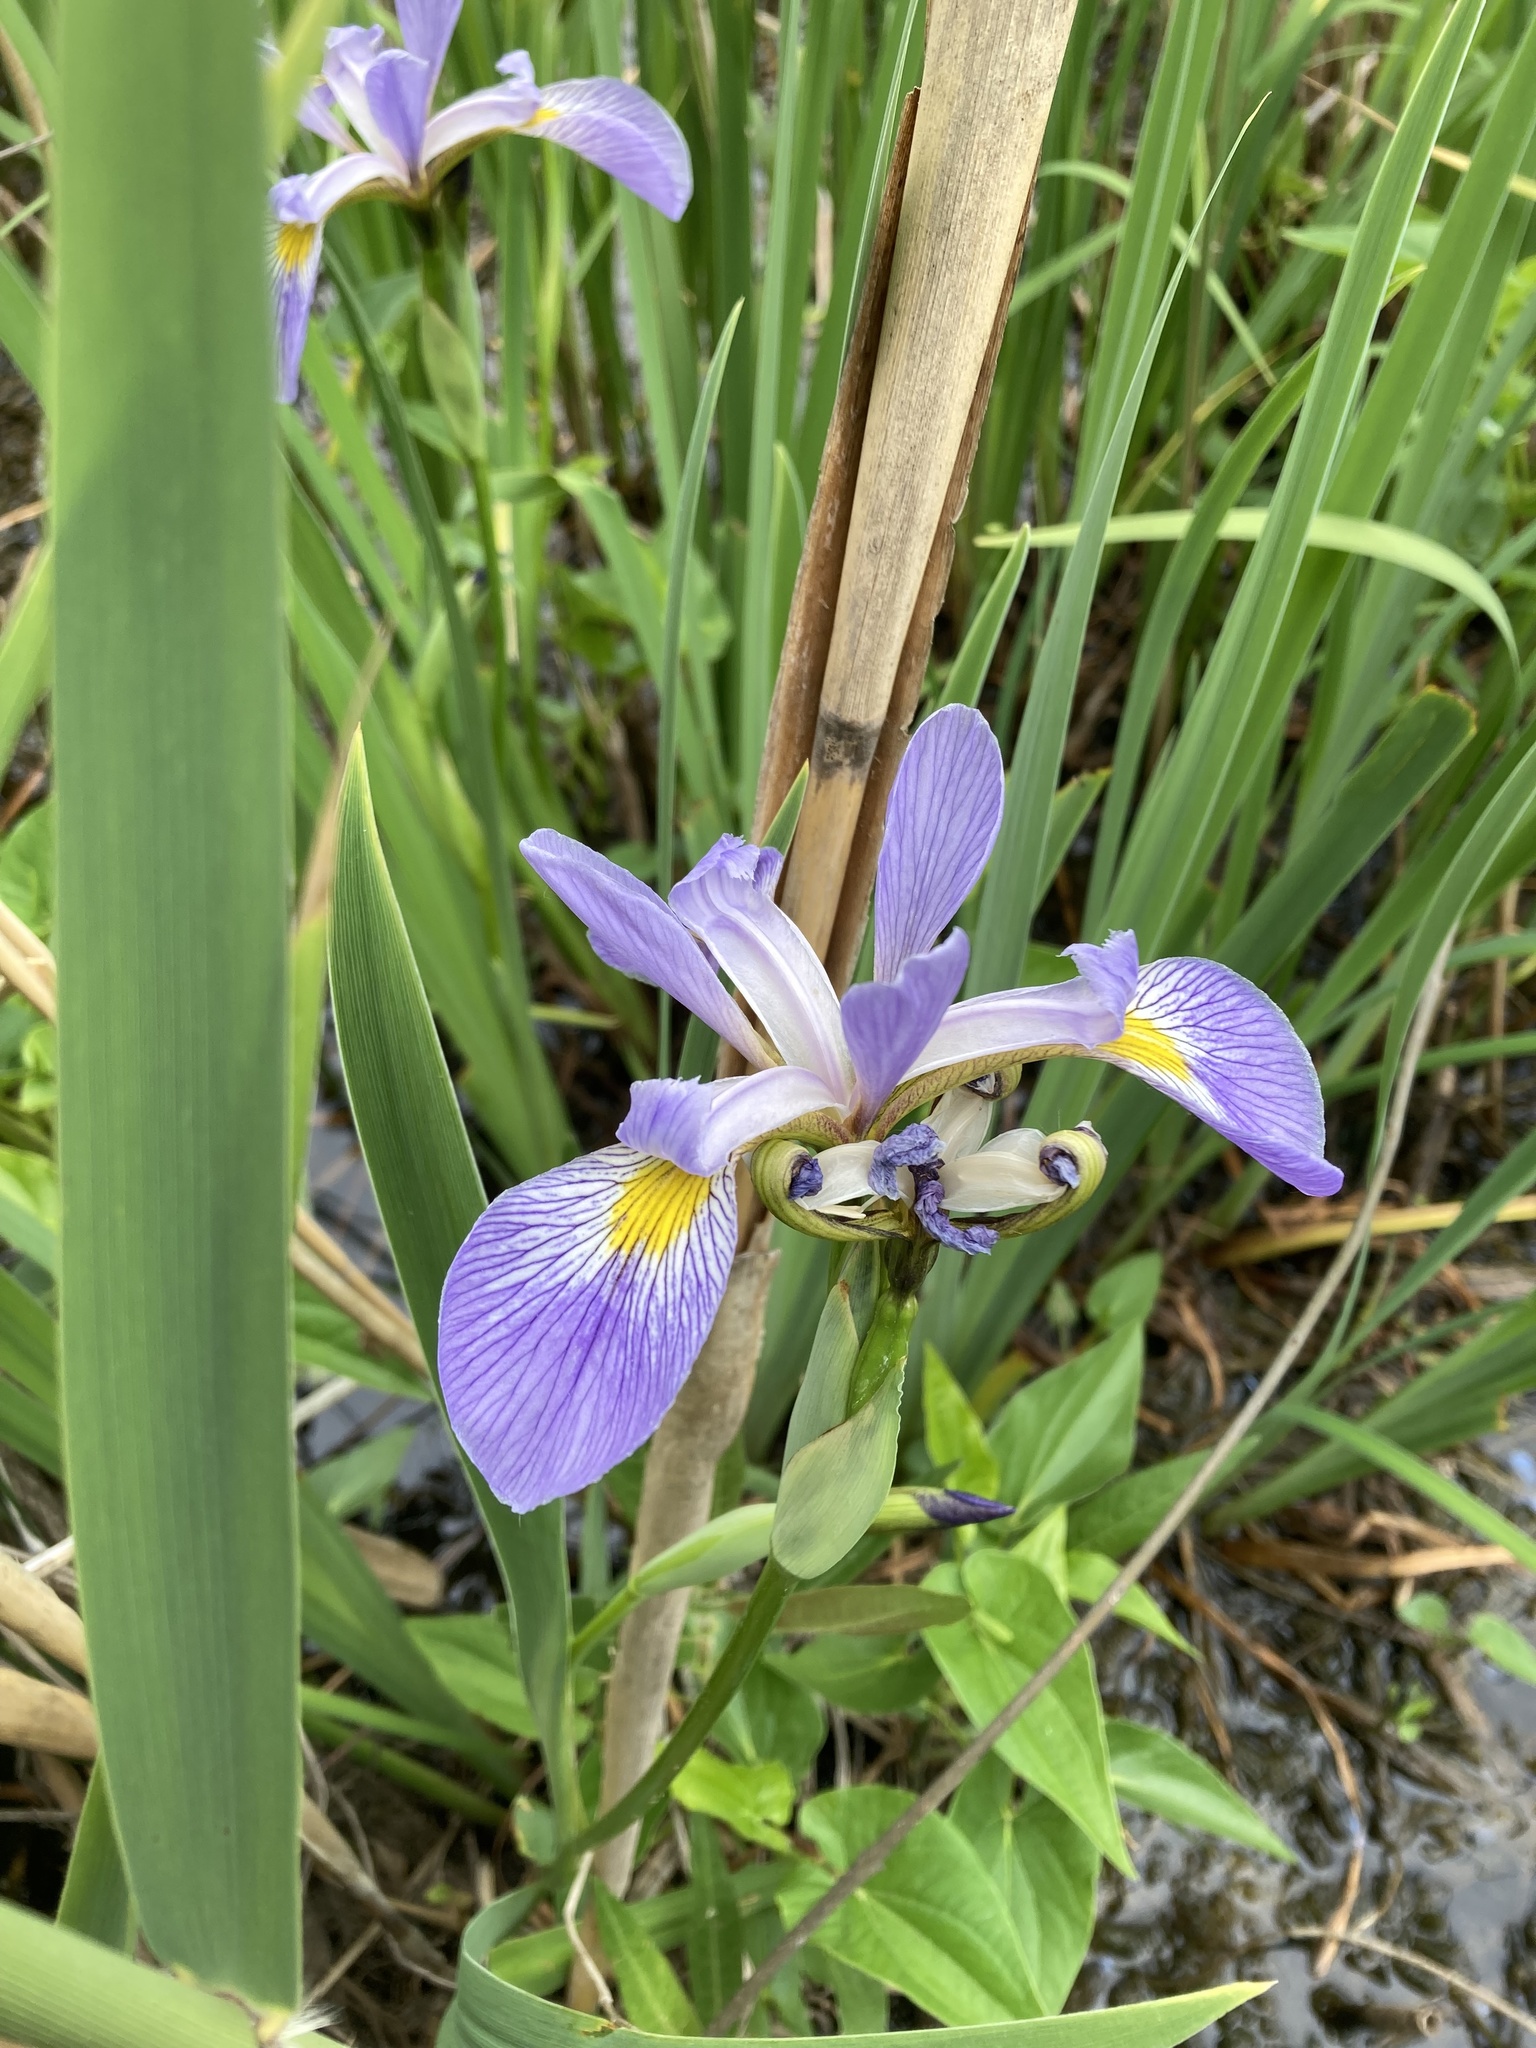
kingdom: Plantae
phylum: Tracheophyta
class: Liliopsida
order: Asparagales
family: Iridaceae
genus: Iris
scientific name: Iris virginica
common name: Southern blue flag
